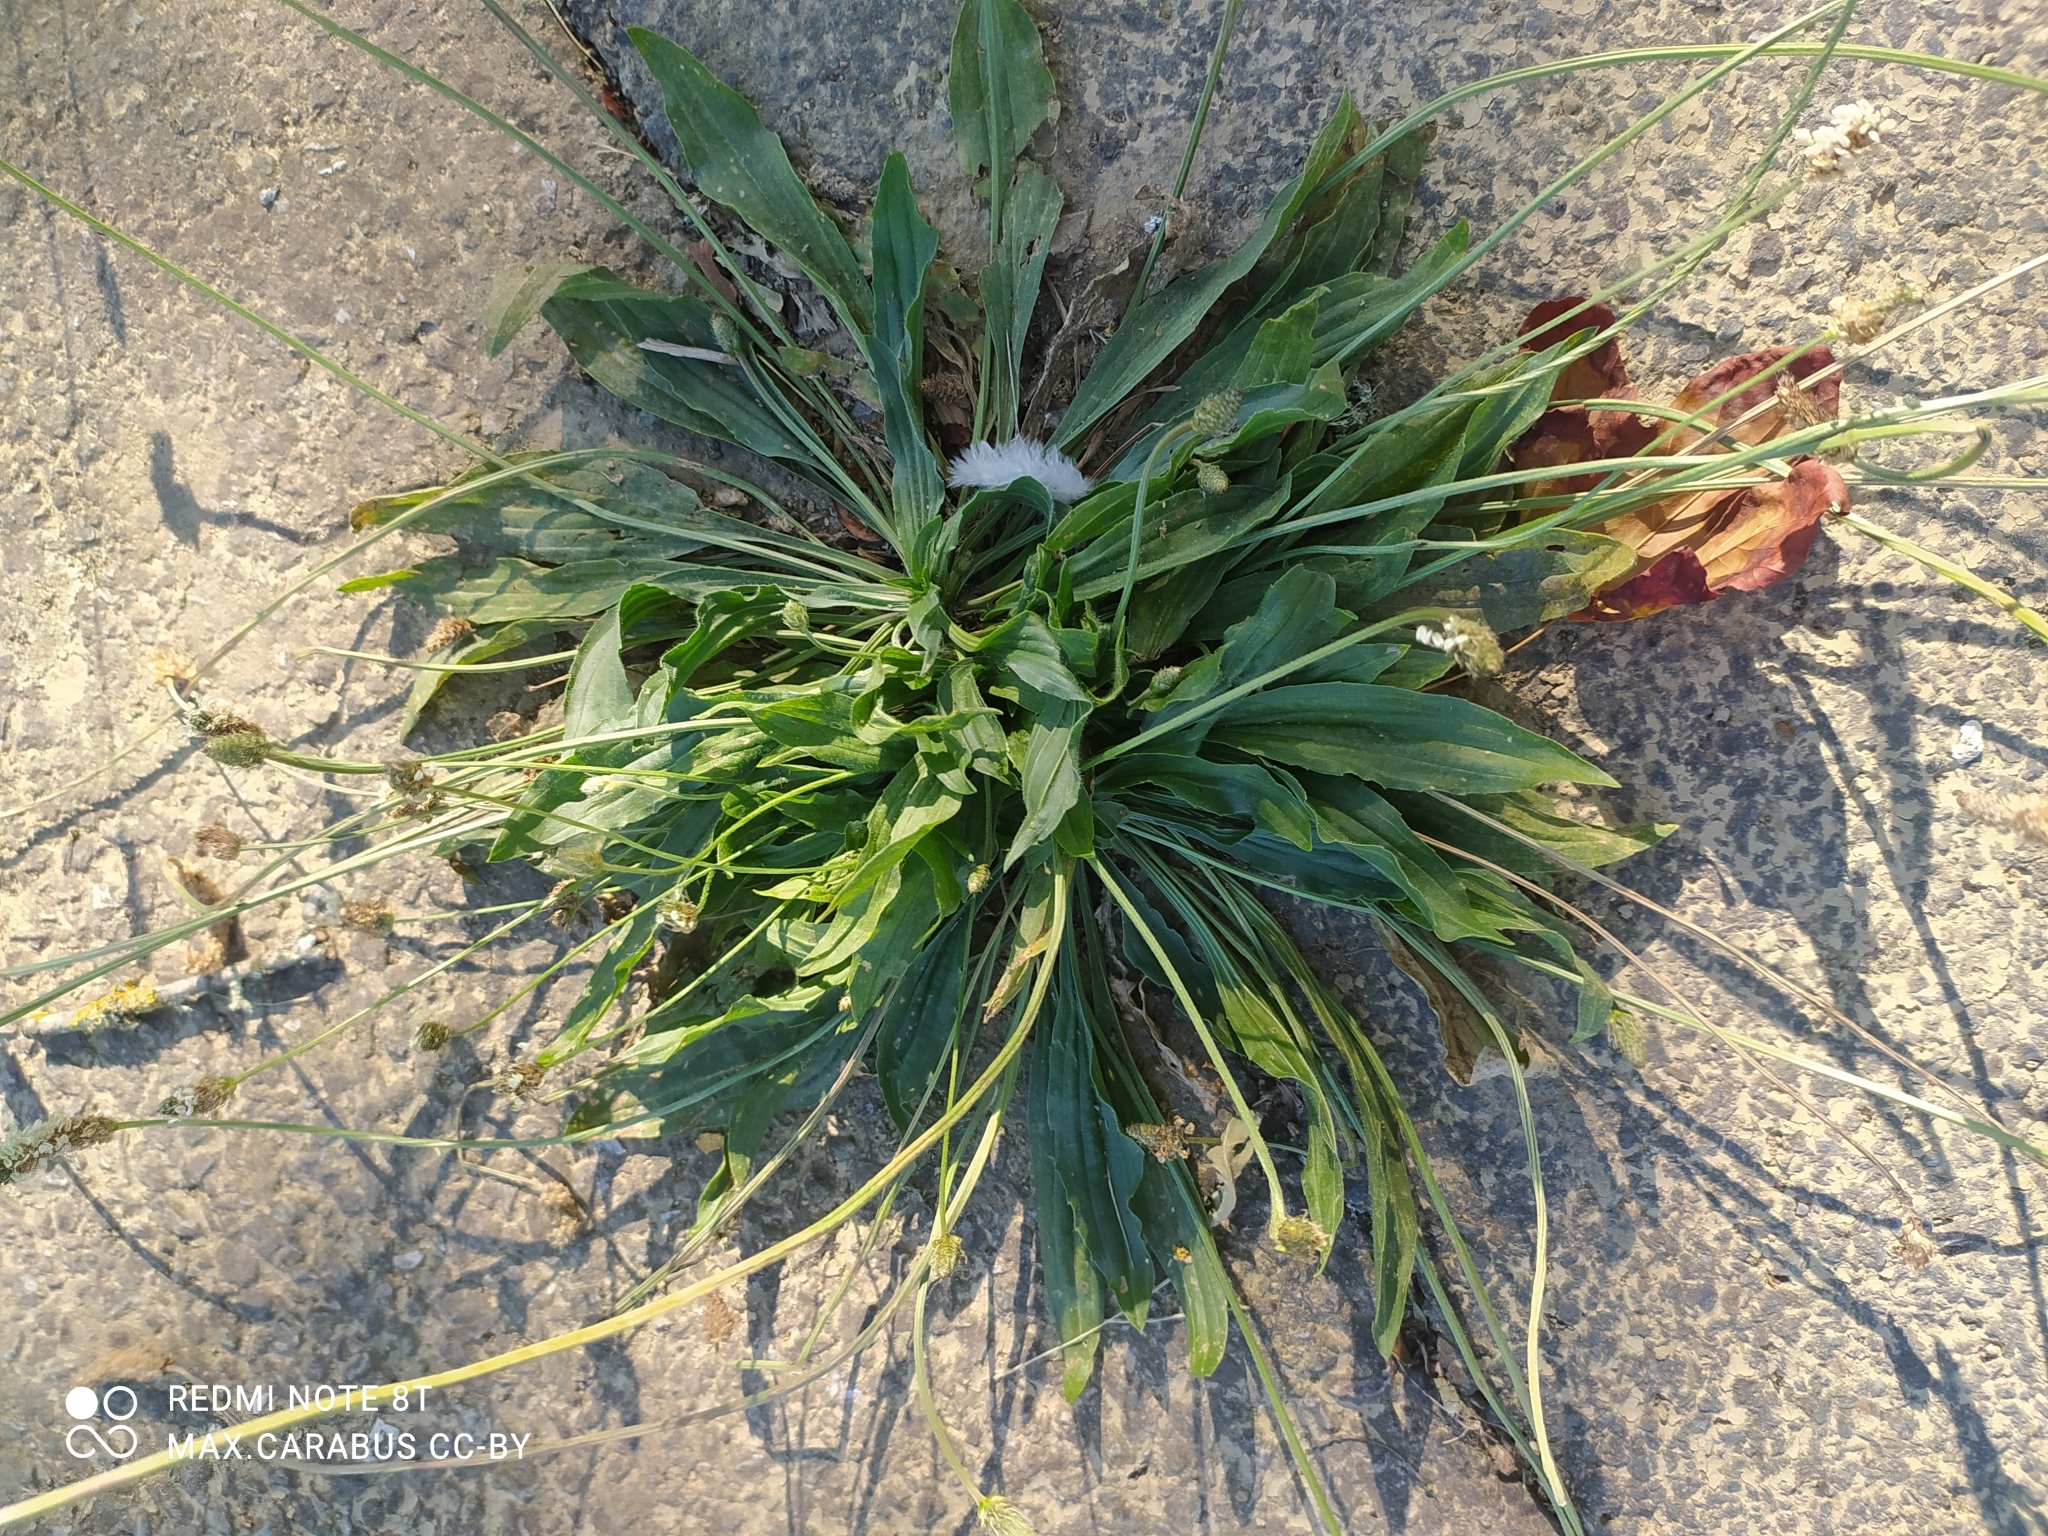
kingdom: Plantae
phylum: Tracheophyta
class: Magnoliopsida
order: Lamiales
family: Plantaginaceae
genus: Plantago
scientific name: Plantago lanceolata
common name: Ribwort plantain
